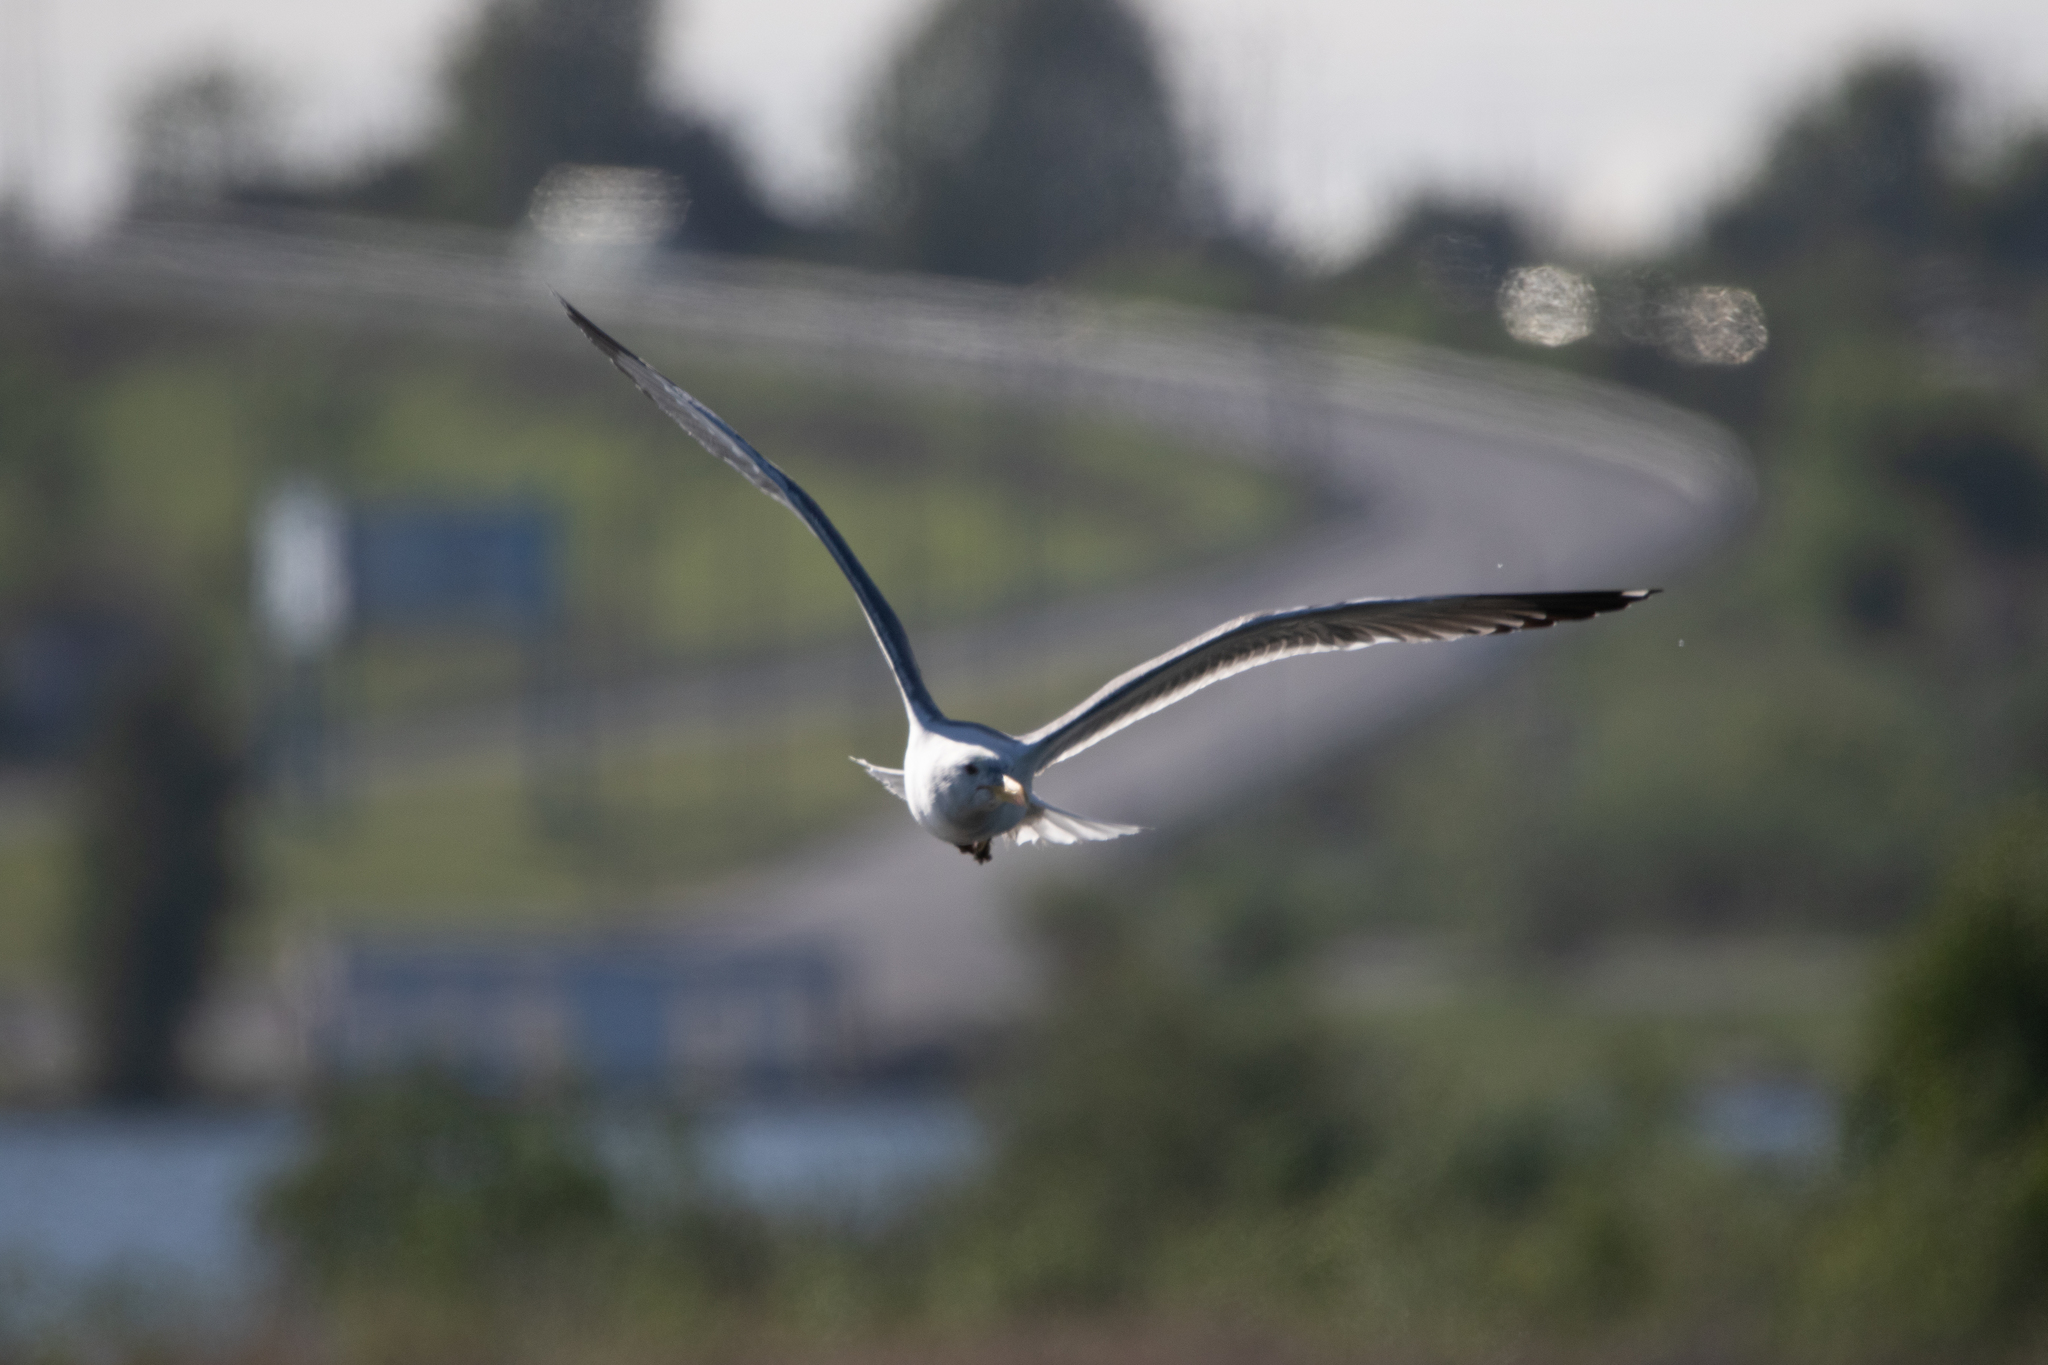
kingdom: Animalia
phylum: Chordata
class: Aves
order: Charadriiformes
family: Laridae
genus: Larus
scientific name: Larus fuscus
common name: Lesser black-backed gull
